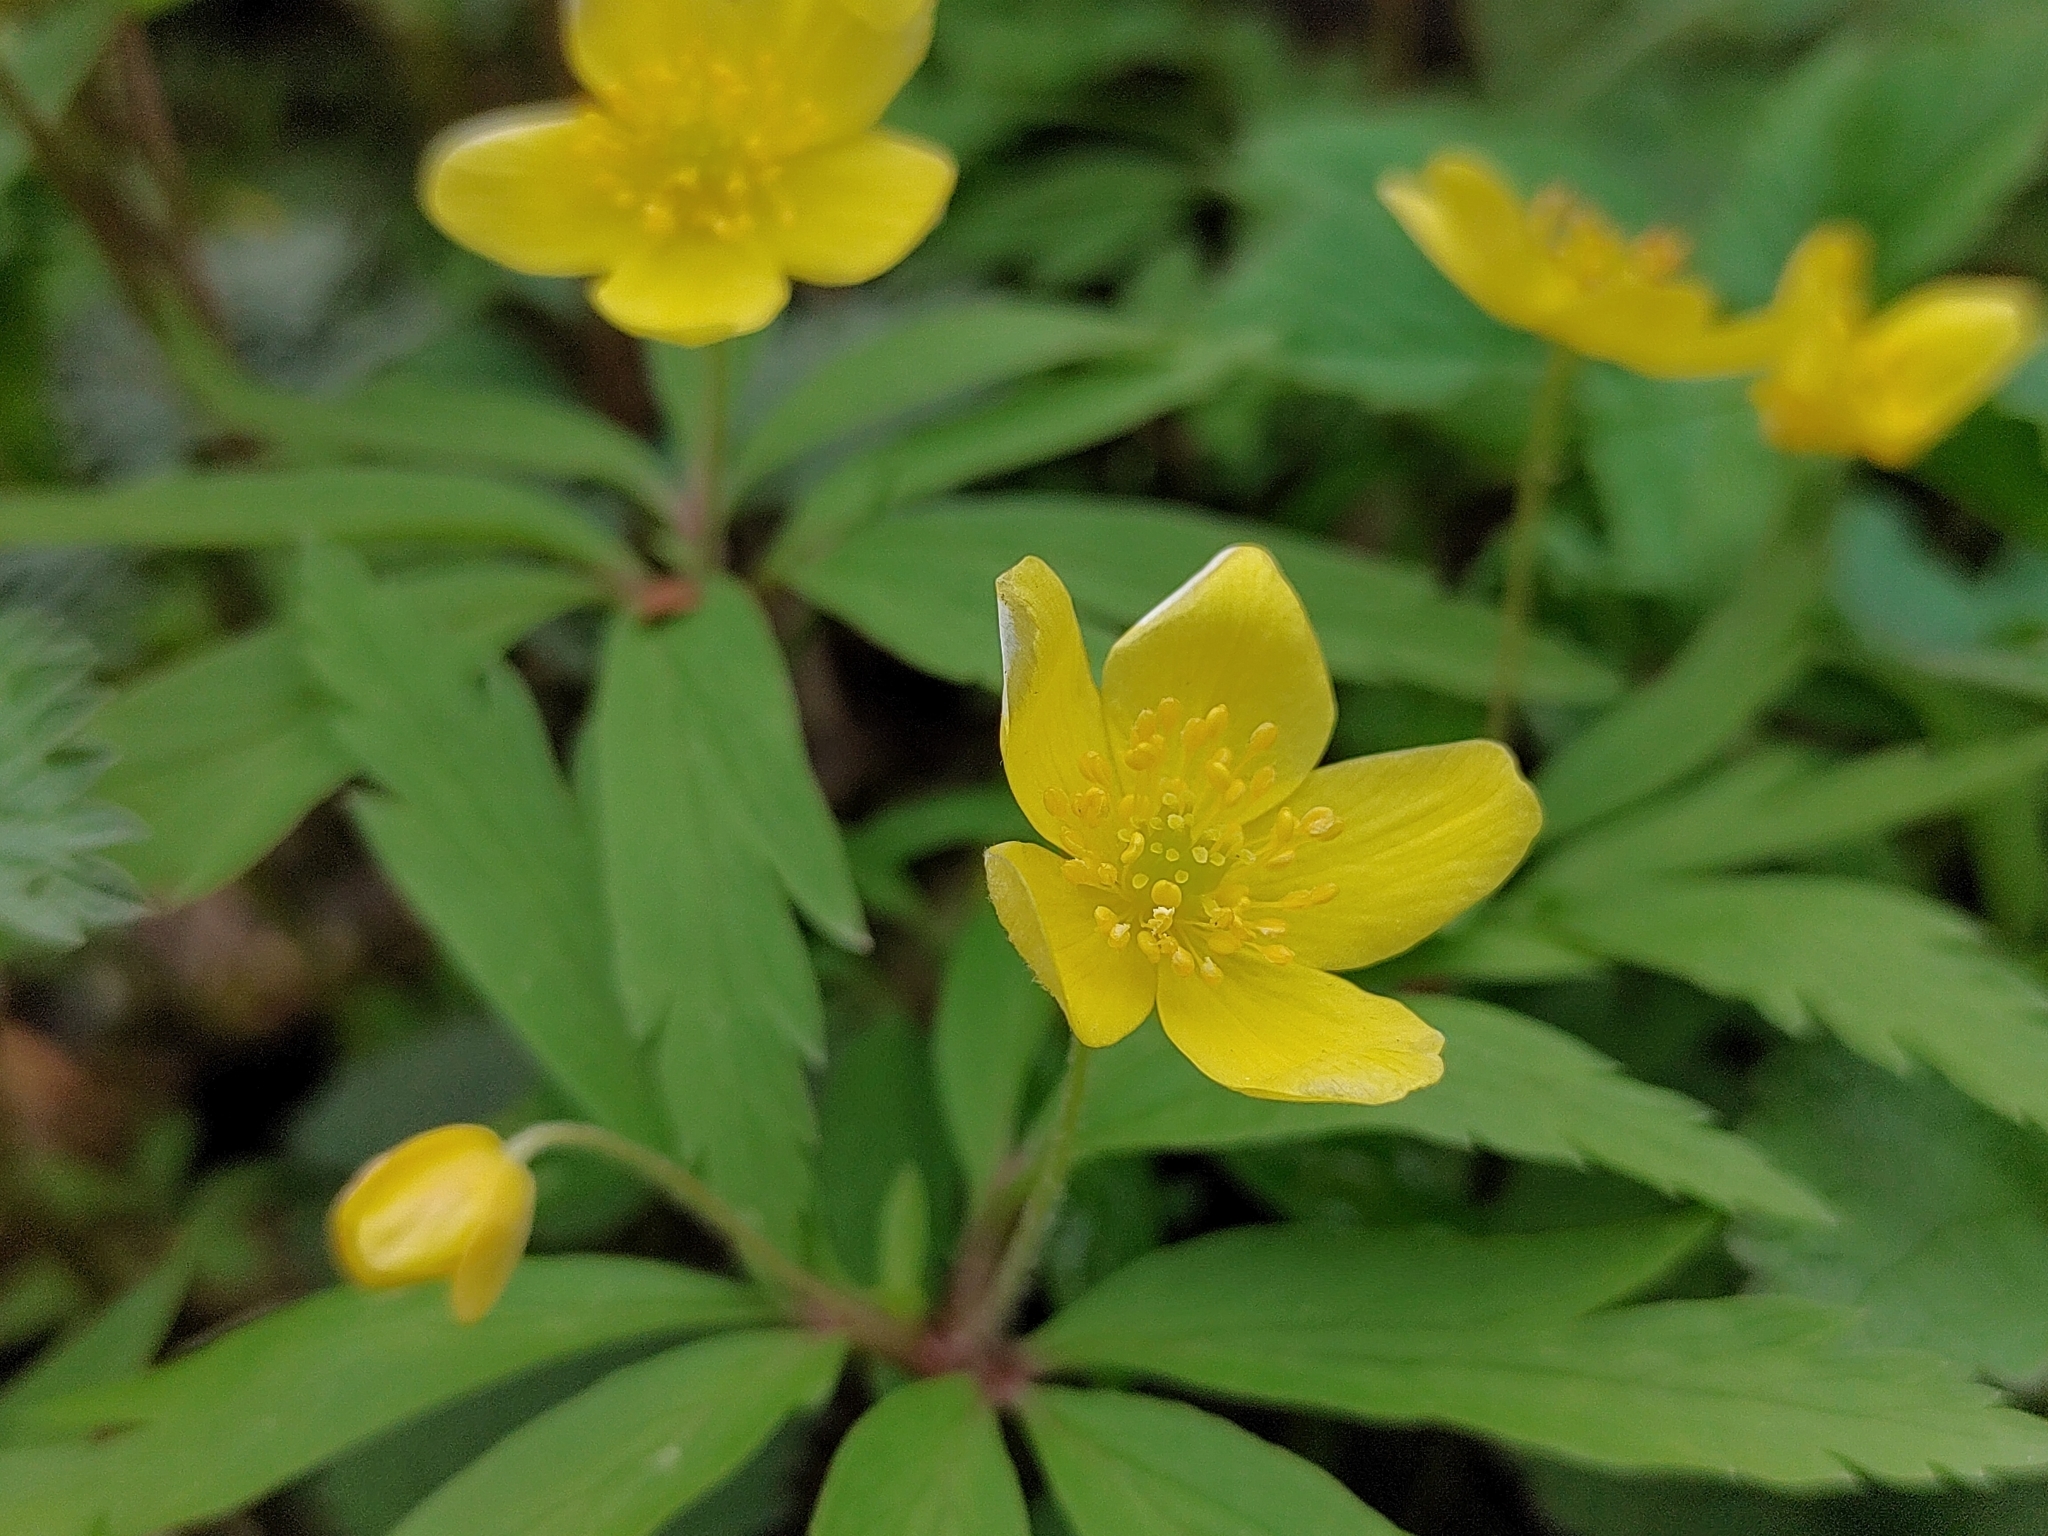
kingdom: Plantae
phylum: Tracheophyta
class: Magnoliopsida
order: Ranunculales
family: Ranunculaceae
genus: Anemone
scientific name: Anemone ranunculoides
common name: Yellow anemone
